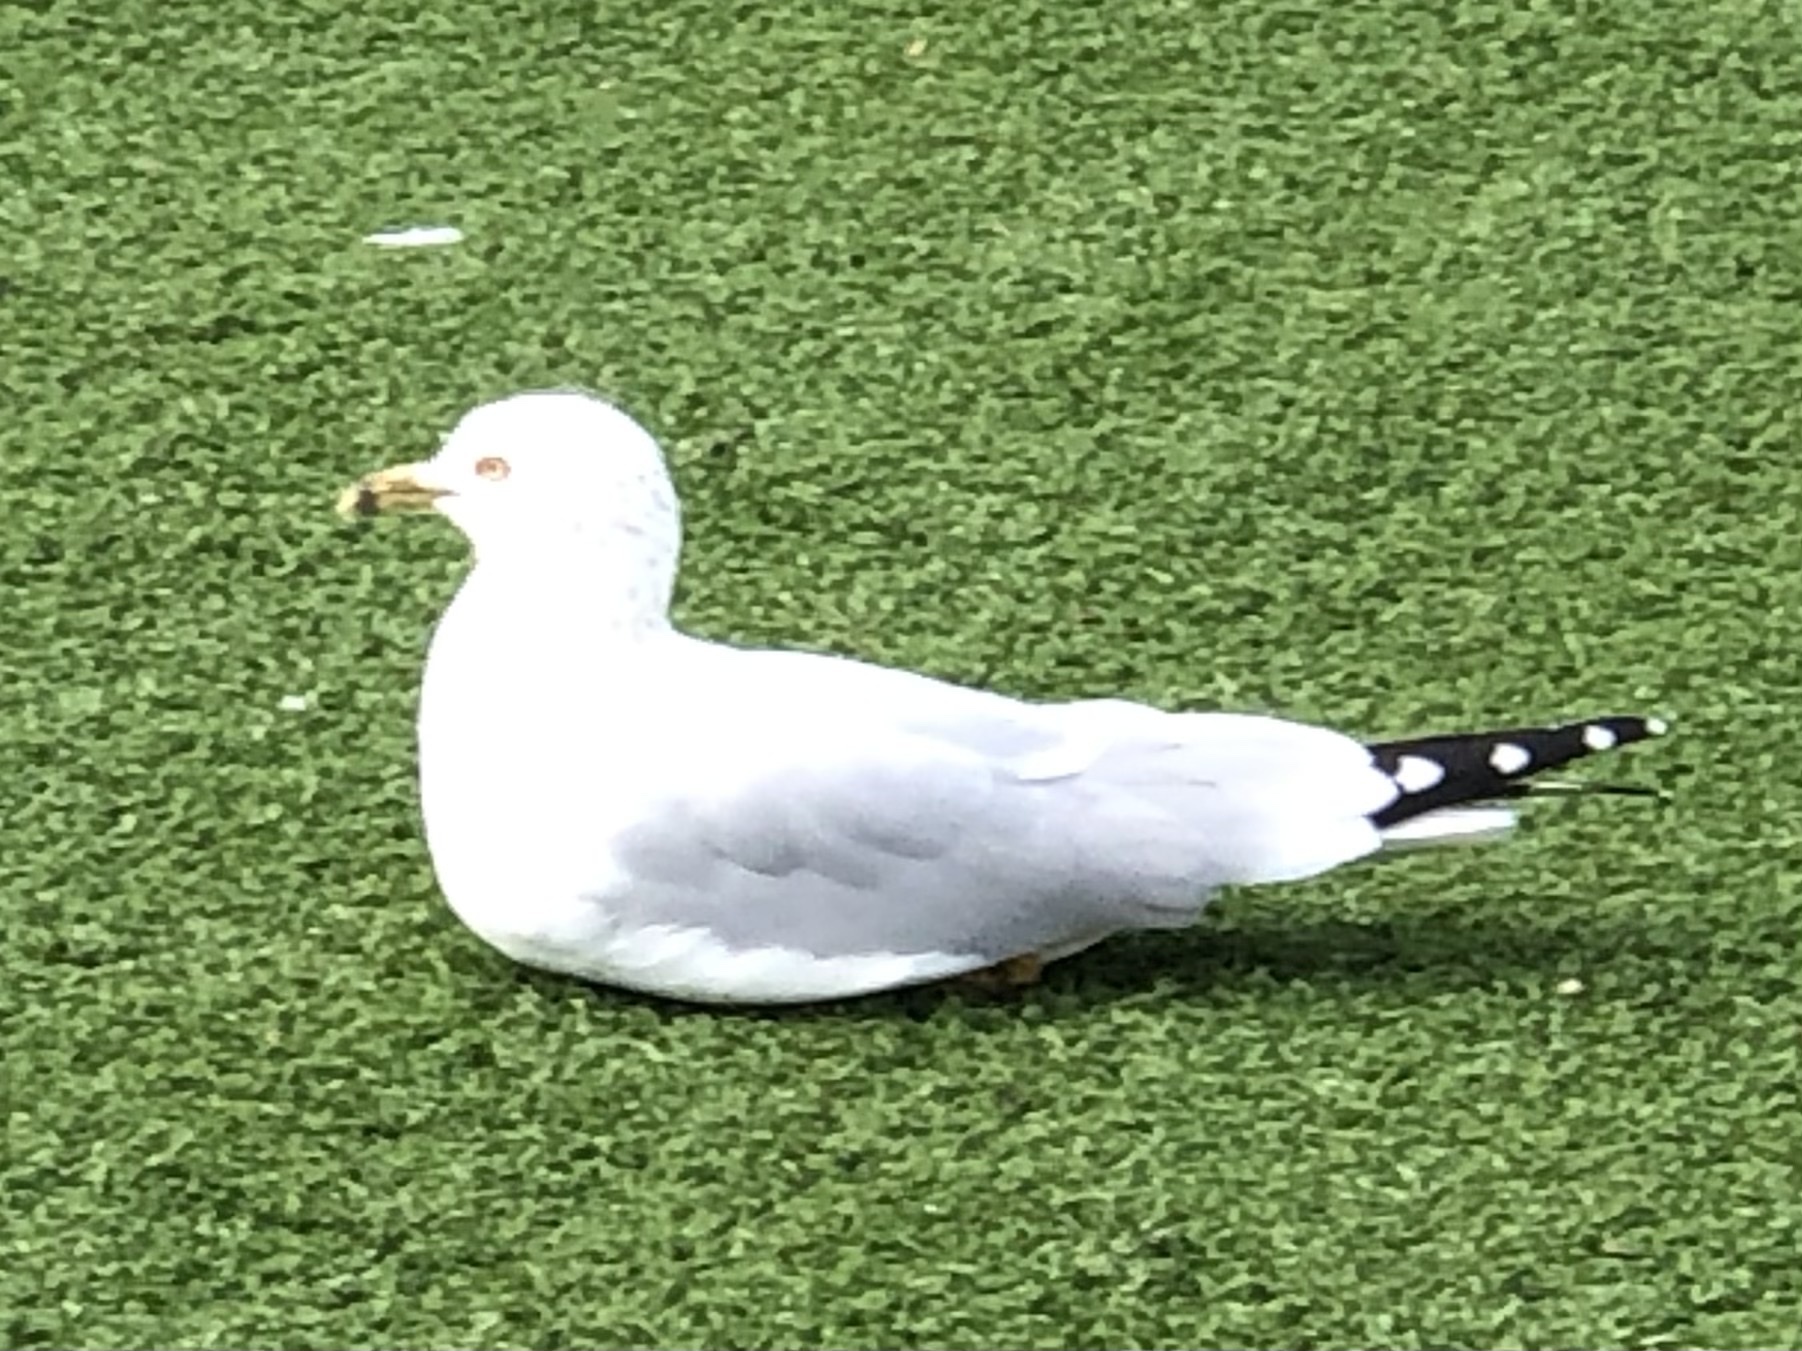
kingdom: Animalia
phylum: Chordata
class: Aves
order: Charadriiformes
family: Laridae
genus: Larus
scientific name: Larus delawarensis
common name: Ring-billed gull
